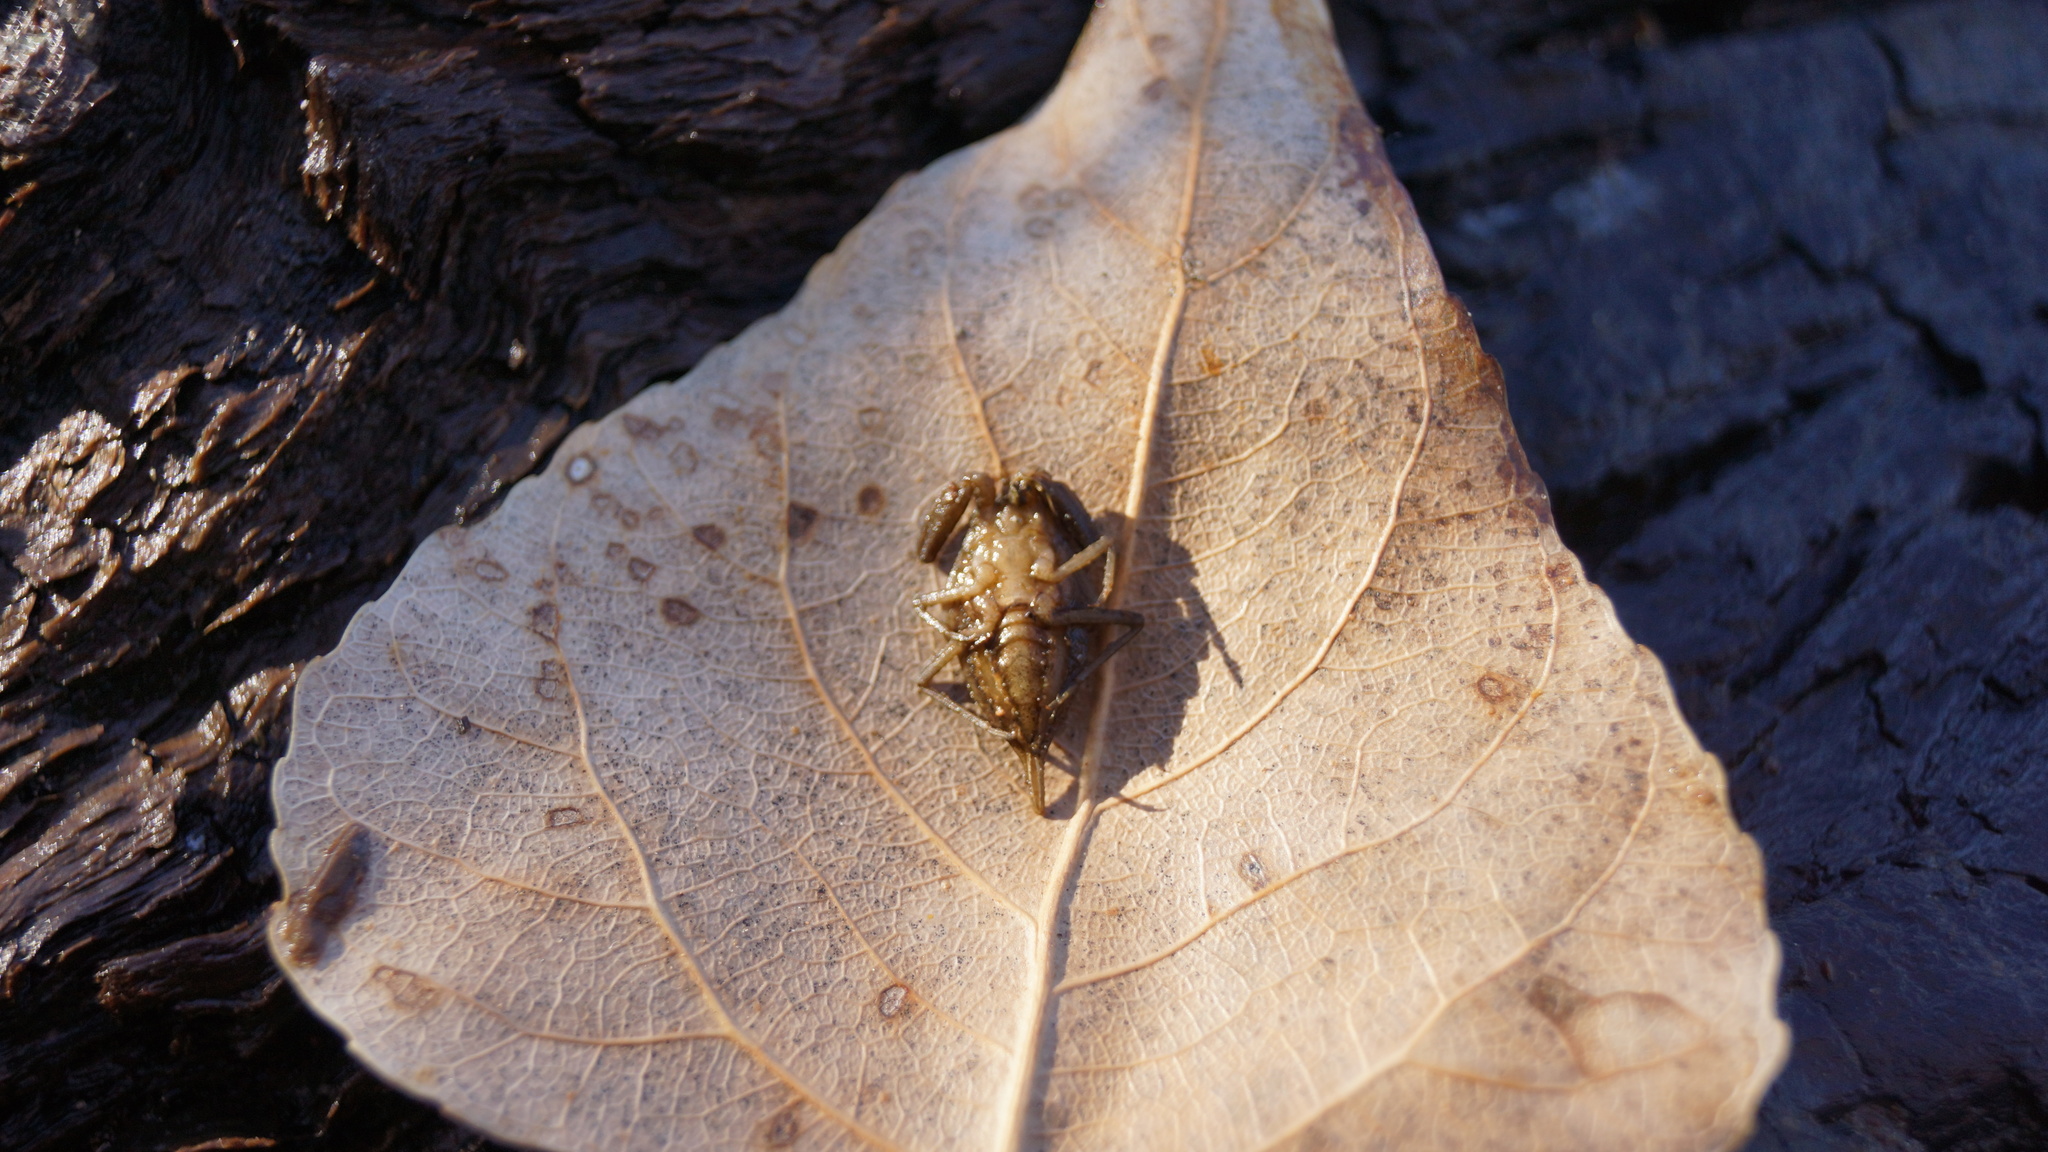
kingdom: Animalia
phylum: Arthropoda
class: Insecta
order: Hemiptera
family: Nepidae
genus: Nepa
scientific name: Nepa cinerea
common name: Water scorpion
